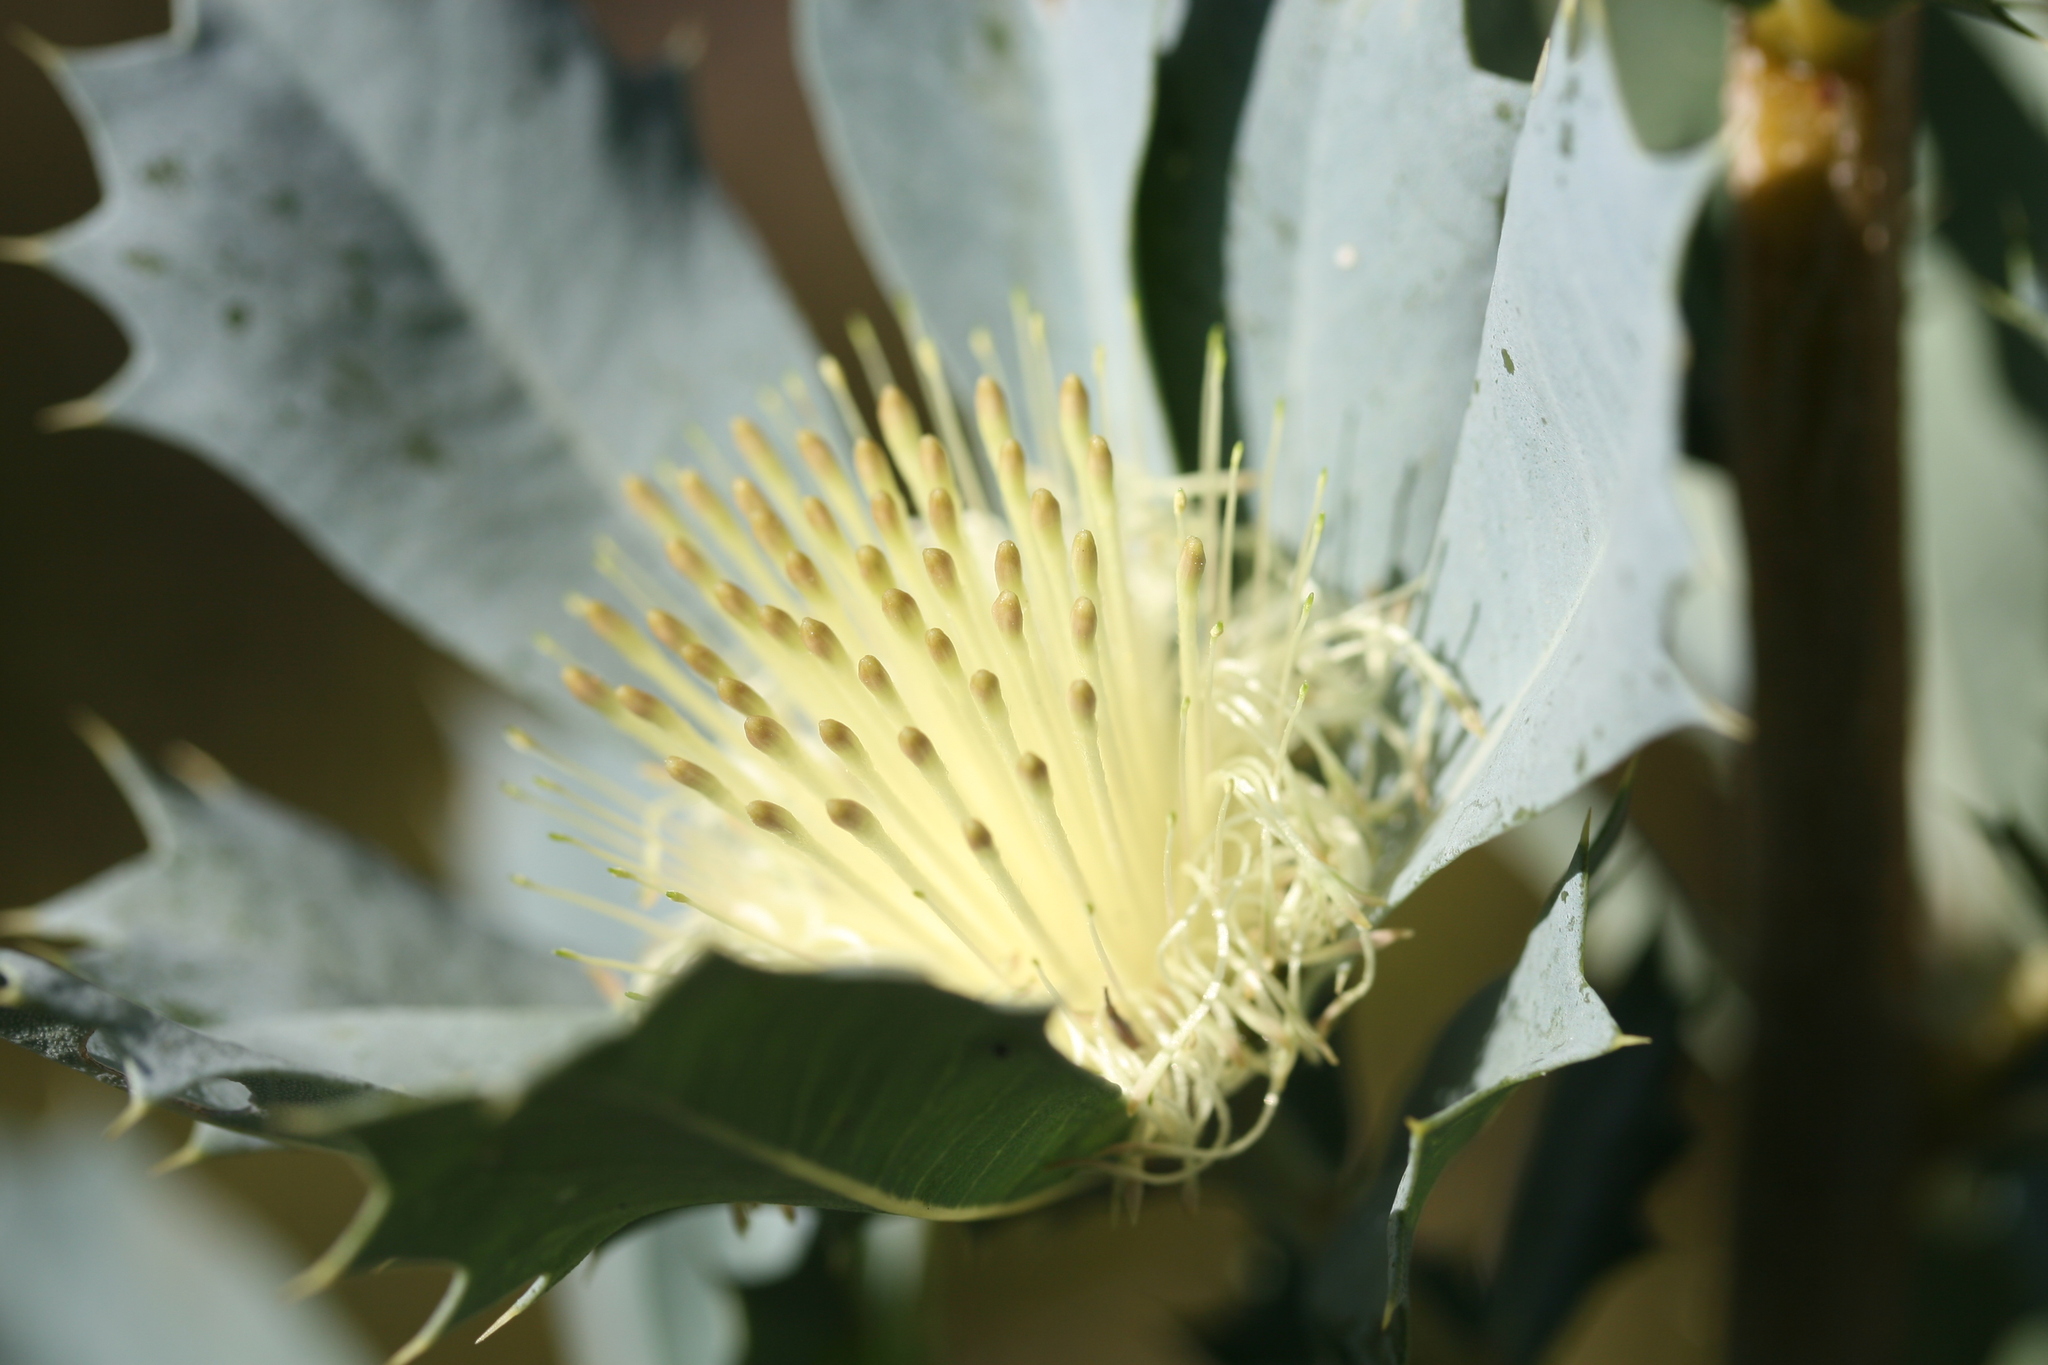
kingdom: Plantae
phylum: Tracheophyta
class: Magnoliopsida
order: Proteales
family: Proteaceae
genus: Banksia
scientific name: Banksia sessilis
